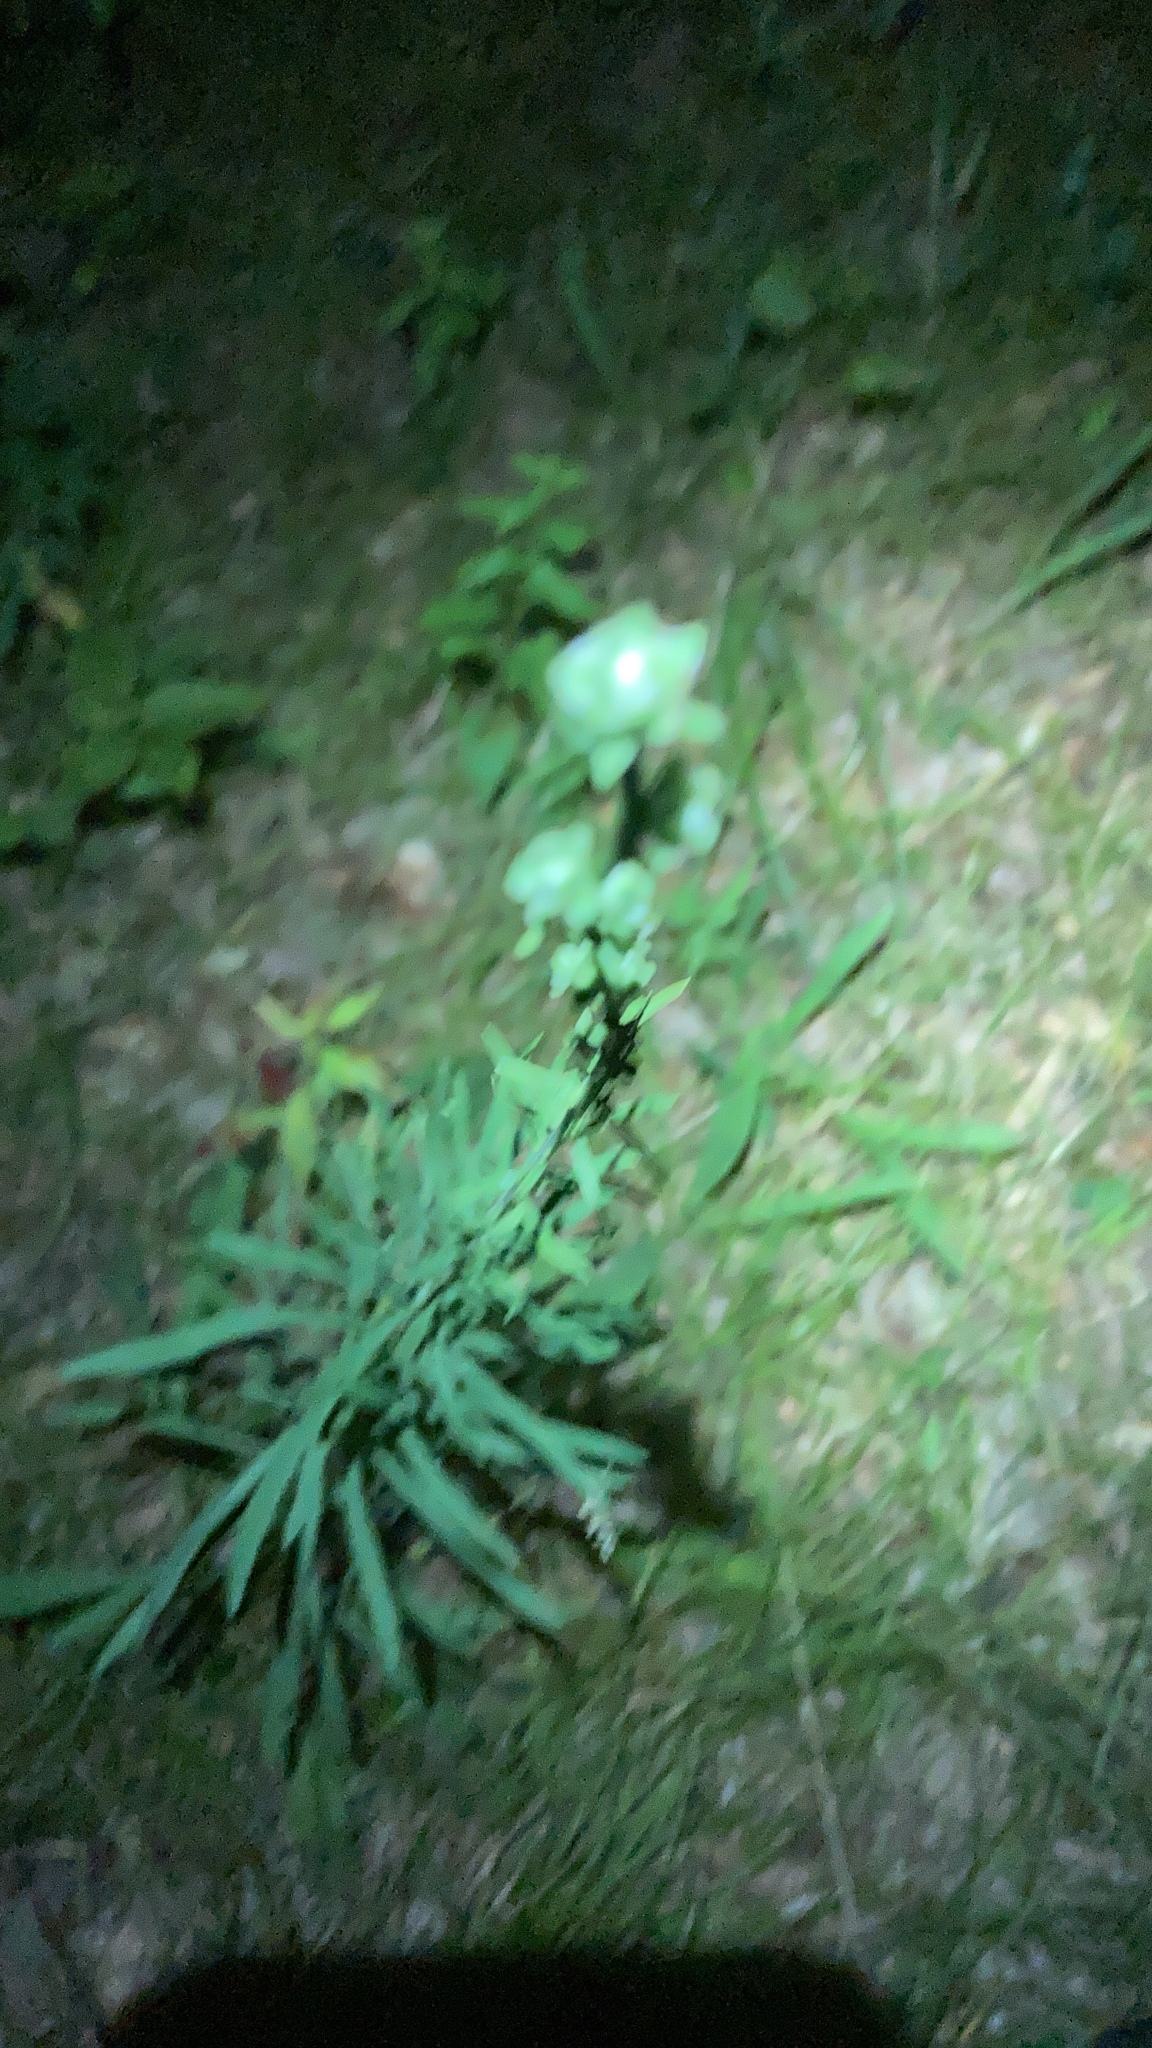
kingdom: Plantae
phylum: Tracheophyta
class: Magnoliopsida
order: Asterales
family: Asteraceae
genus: Liatris
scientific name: Liatris aspera
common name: Lacerate blazing-star
